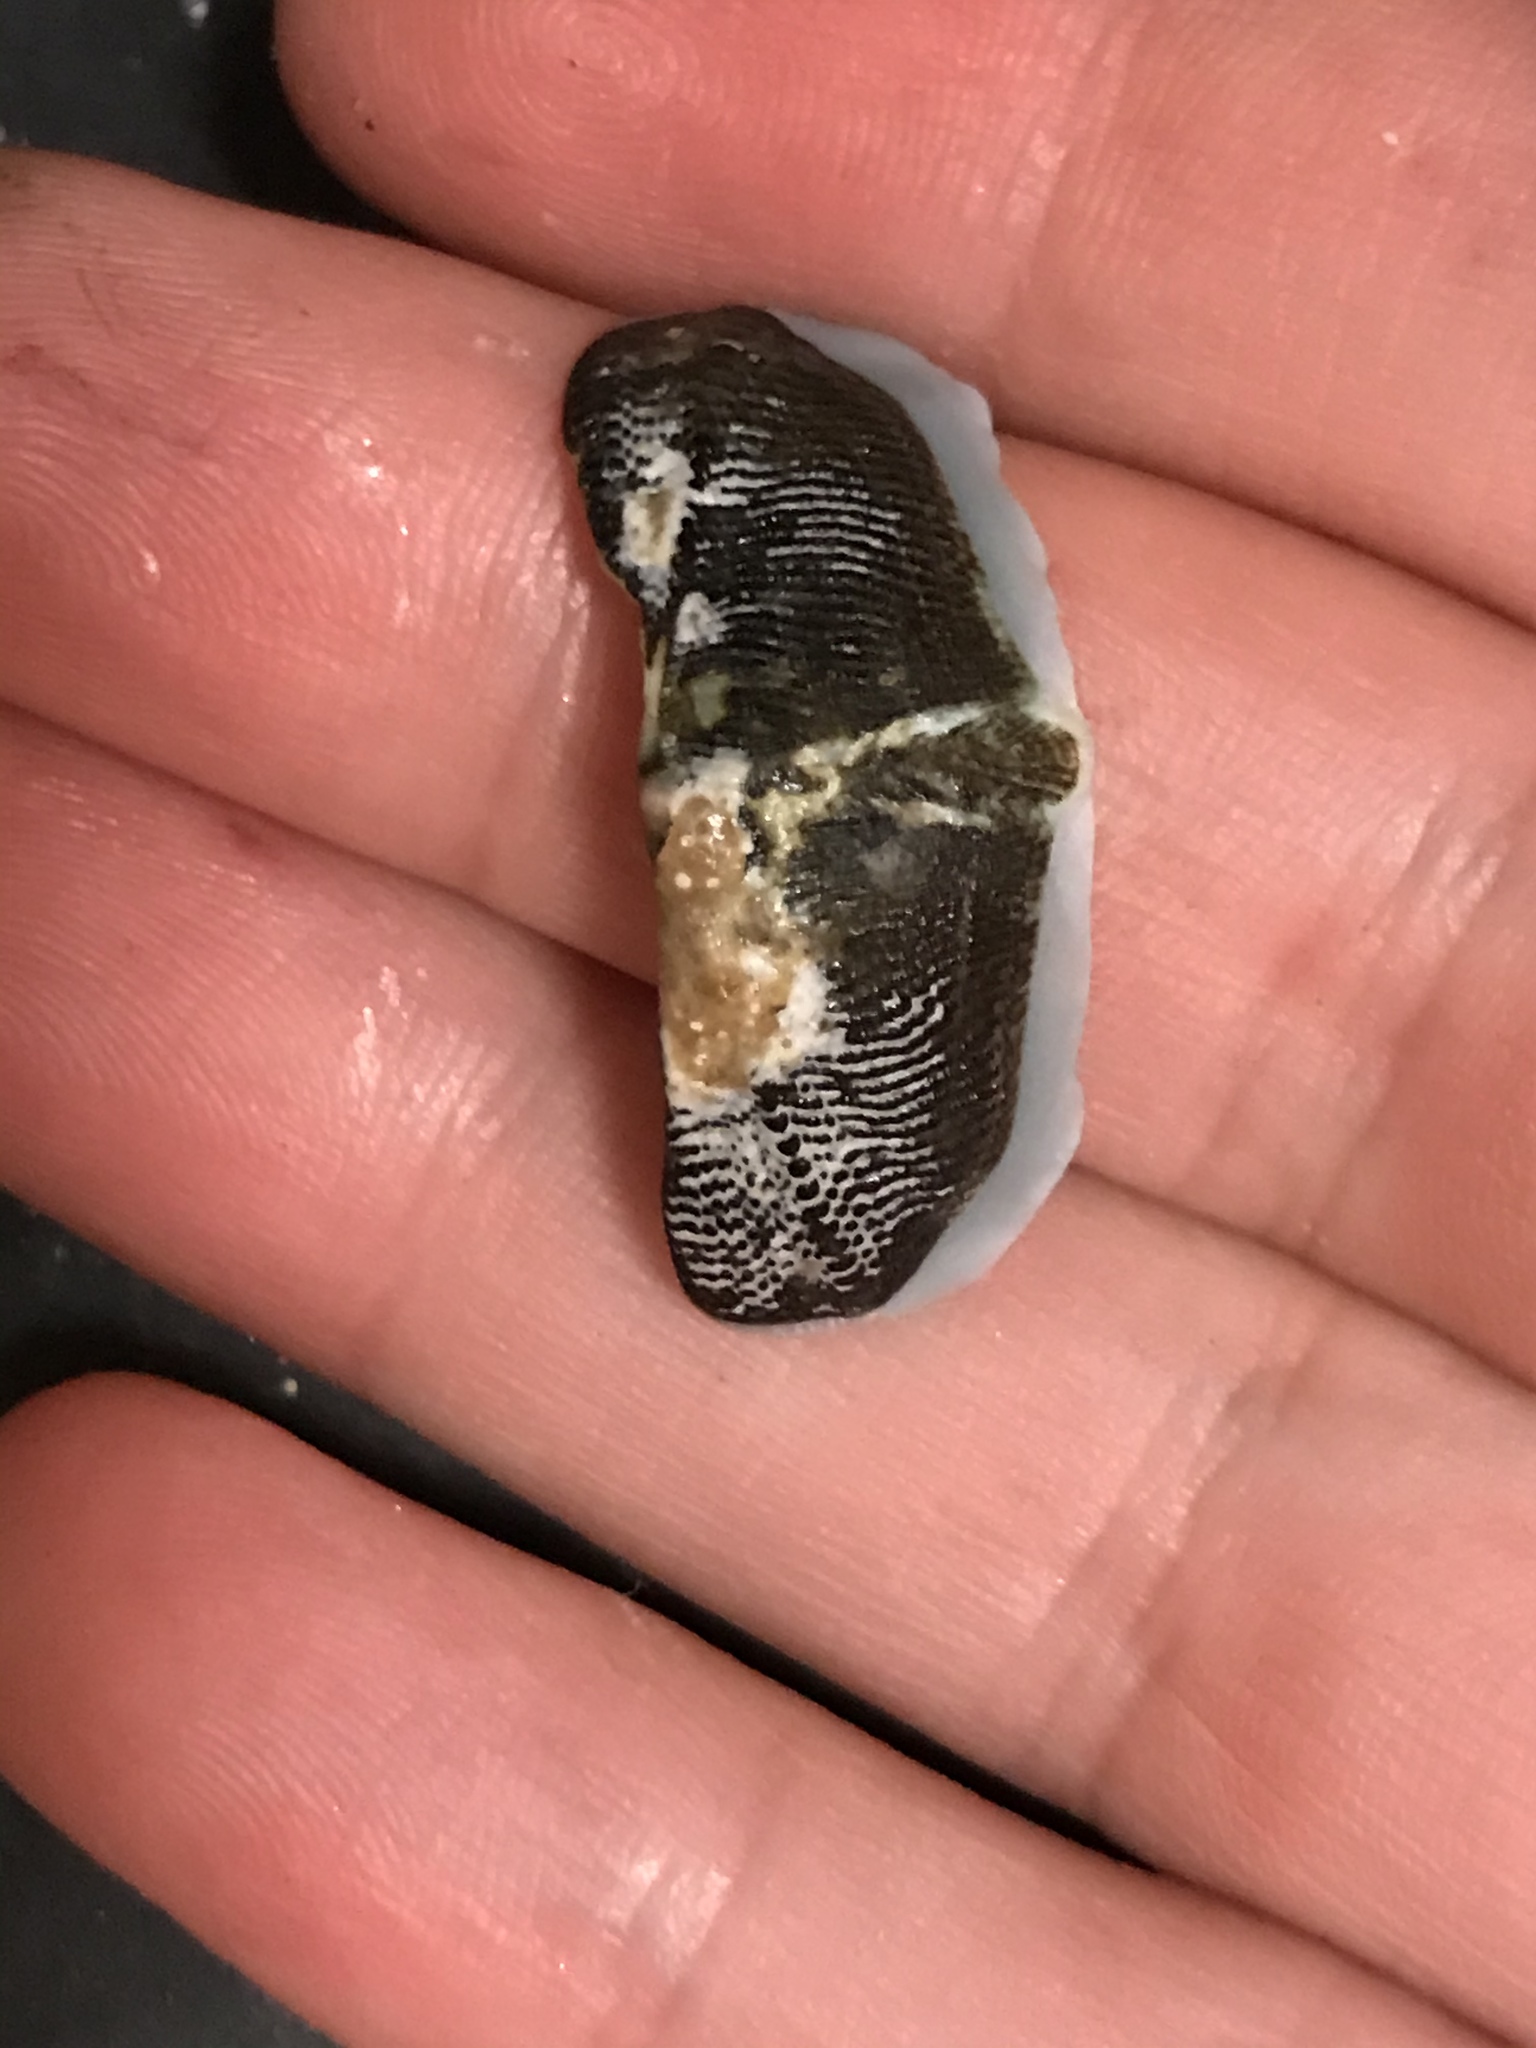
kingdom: Animalia
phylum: Mollusca
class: Polyplacophora
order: Chitonida
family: Mopaliidae
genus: Mopalia
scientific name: Mopalia muscosa
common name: Mossy chiton
